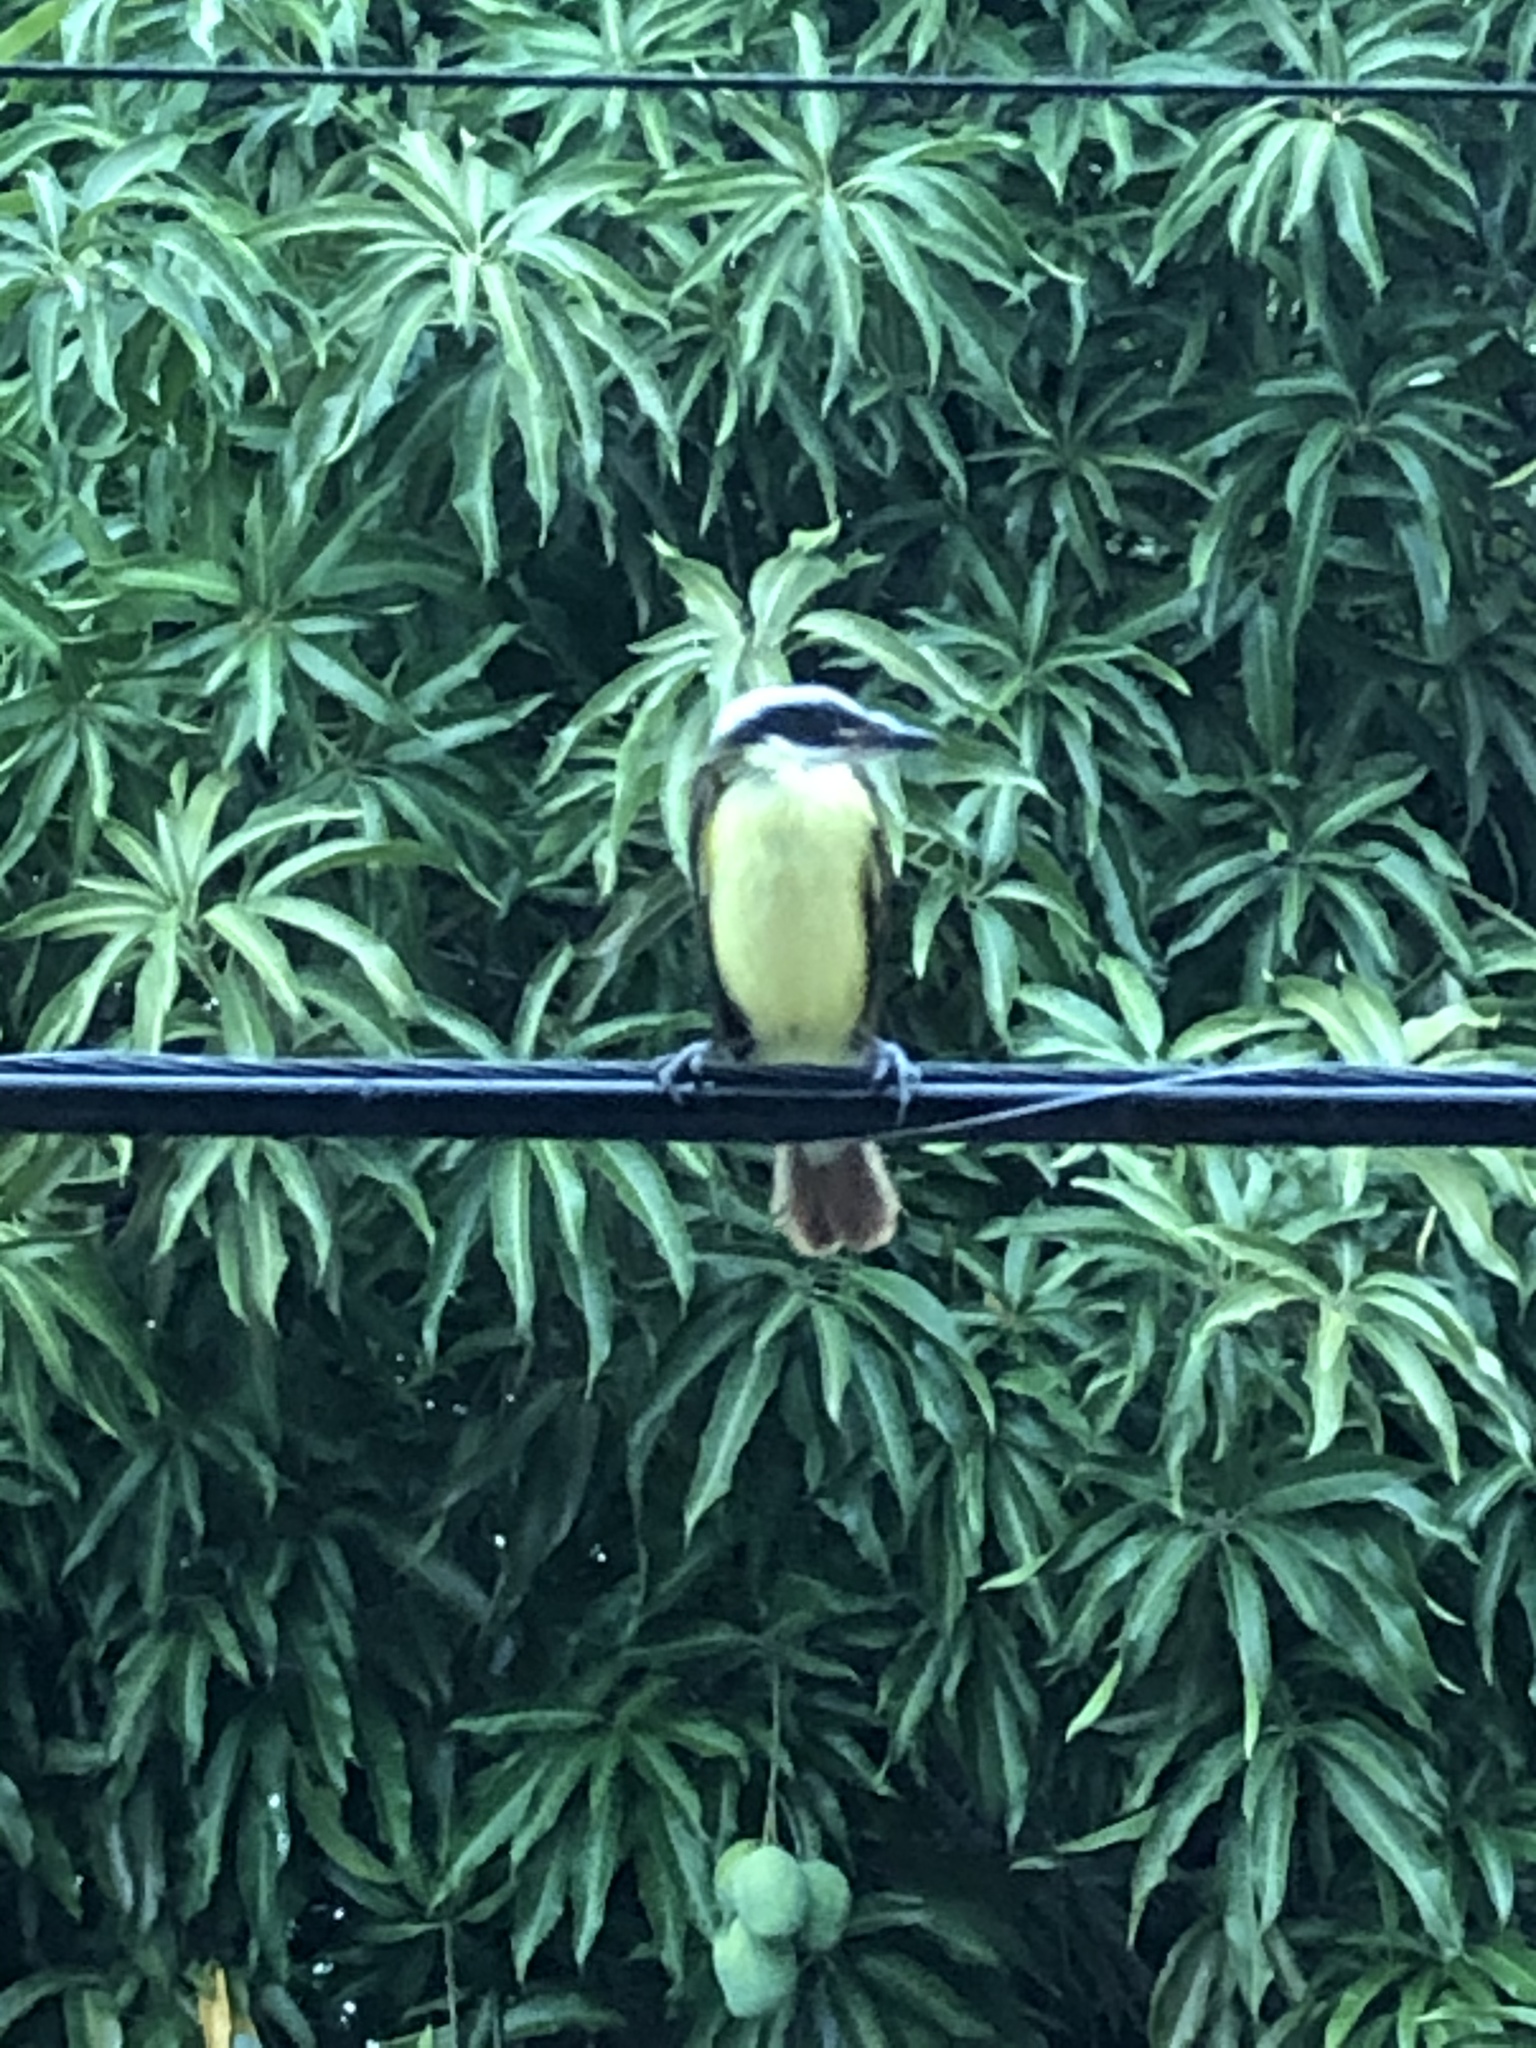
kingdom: Animalia
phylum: Chordata
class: Aves
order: Passeriformes
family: Tyrannidae
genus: Pitangus
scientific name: Pitangus sulphuratus
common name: Great kiskadee
